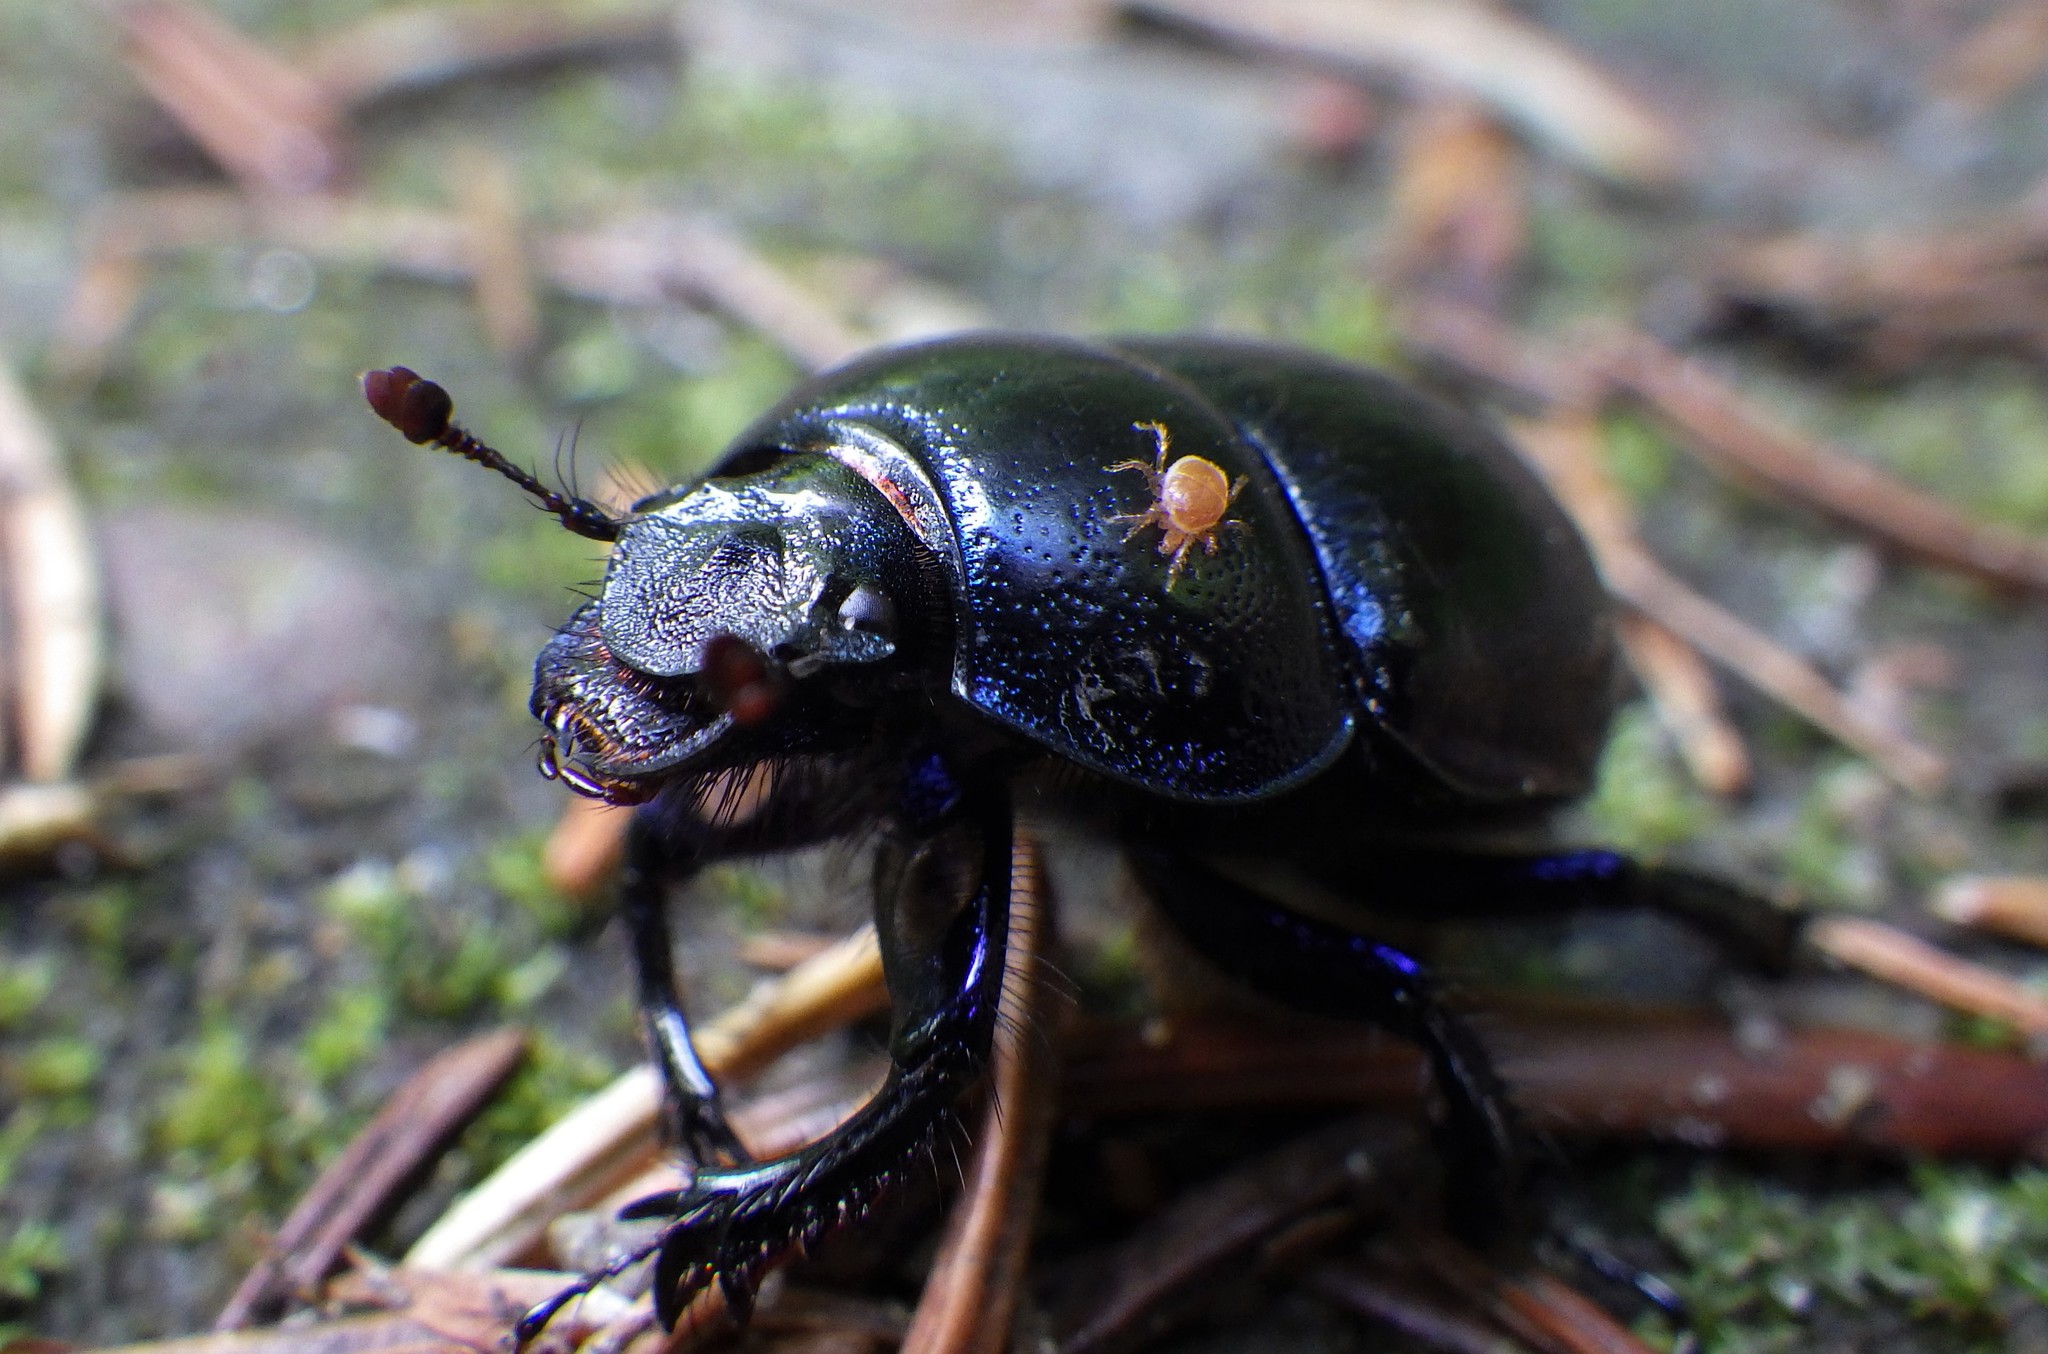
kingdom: Animalia
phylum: Arthropoda
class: Insecta
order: Coleoptera
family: Geotrupidae
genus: Anoplotrupes
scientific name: Anoplotrupes stercorosus
